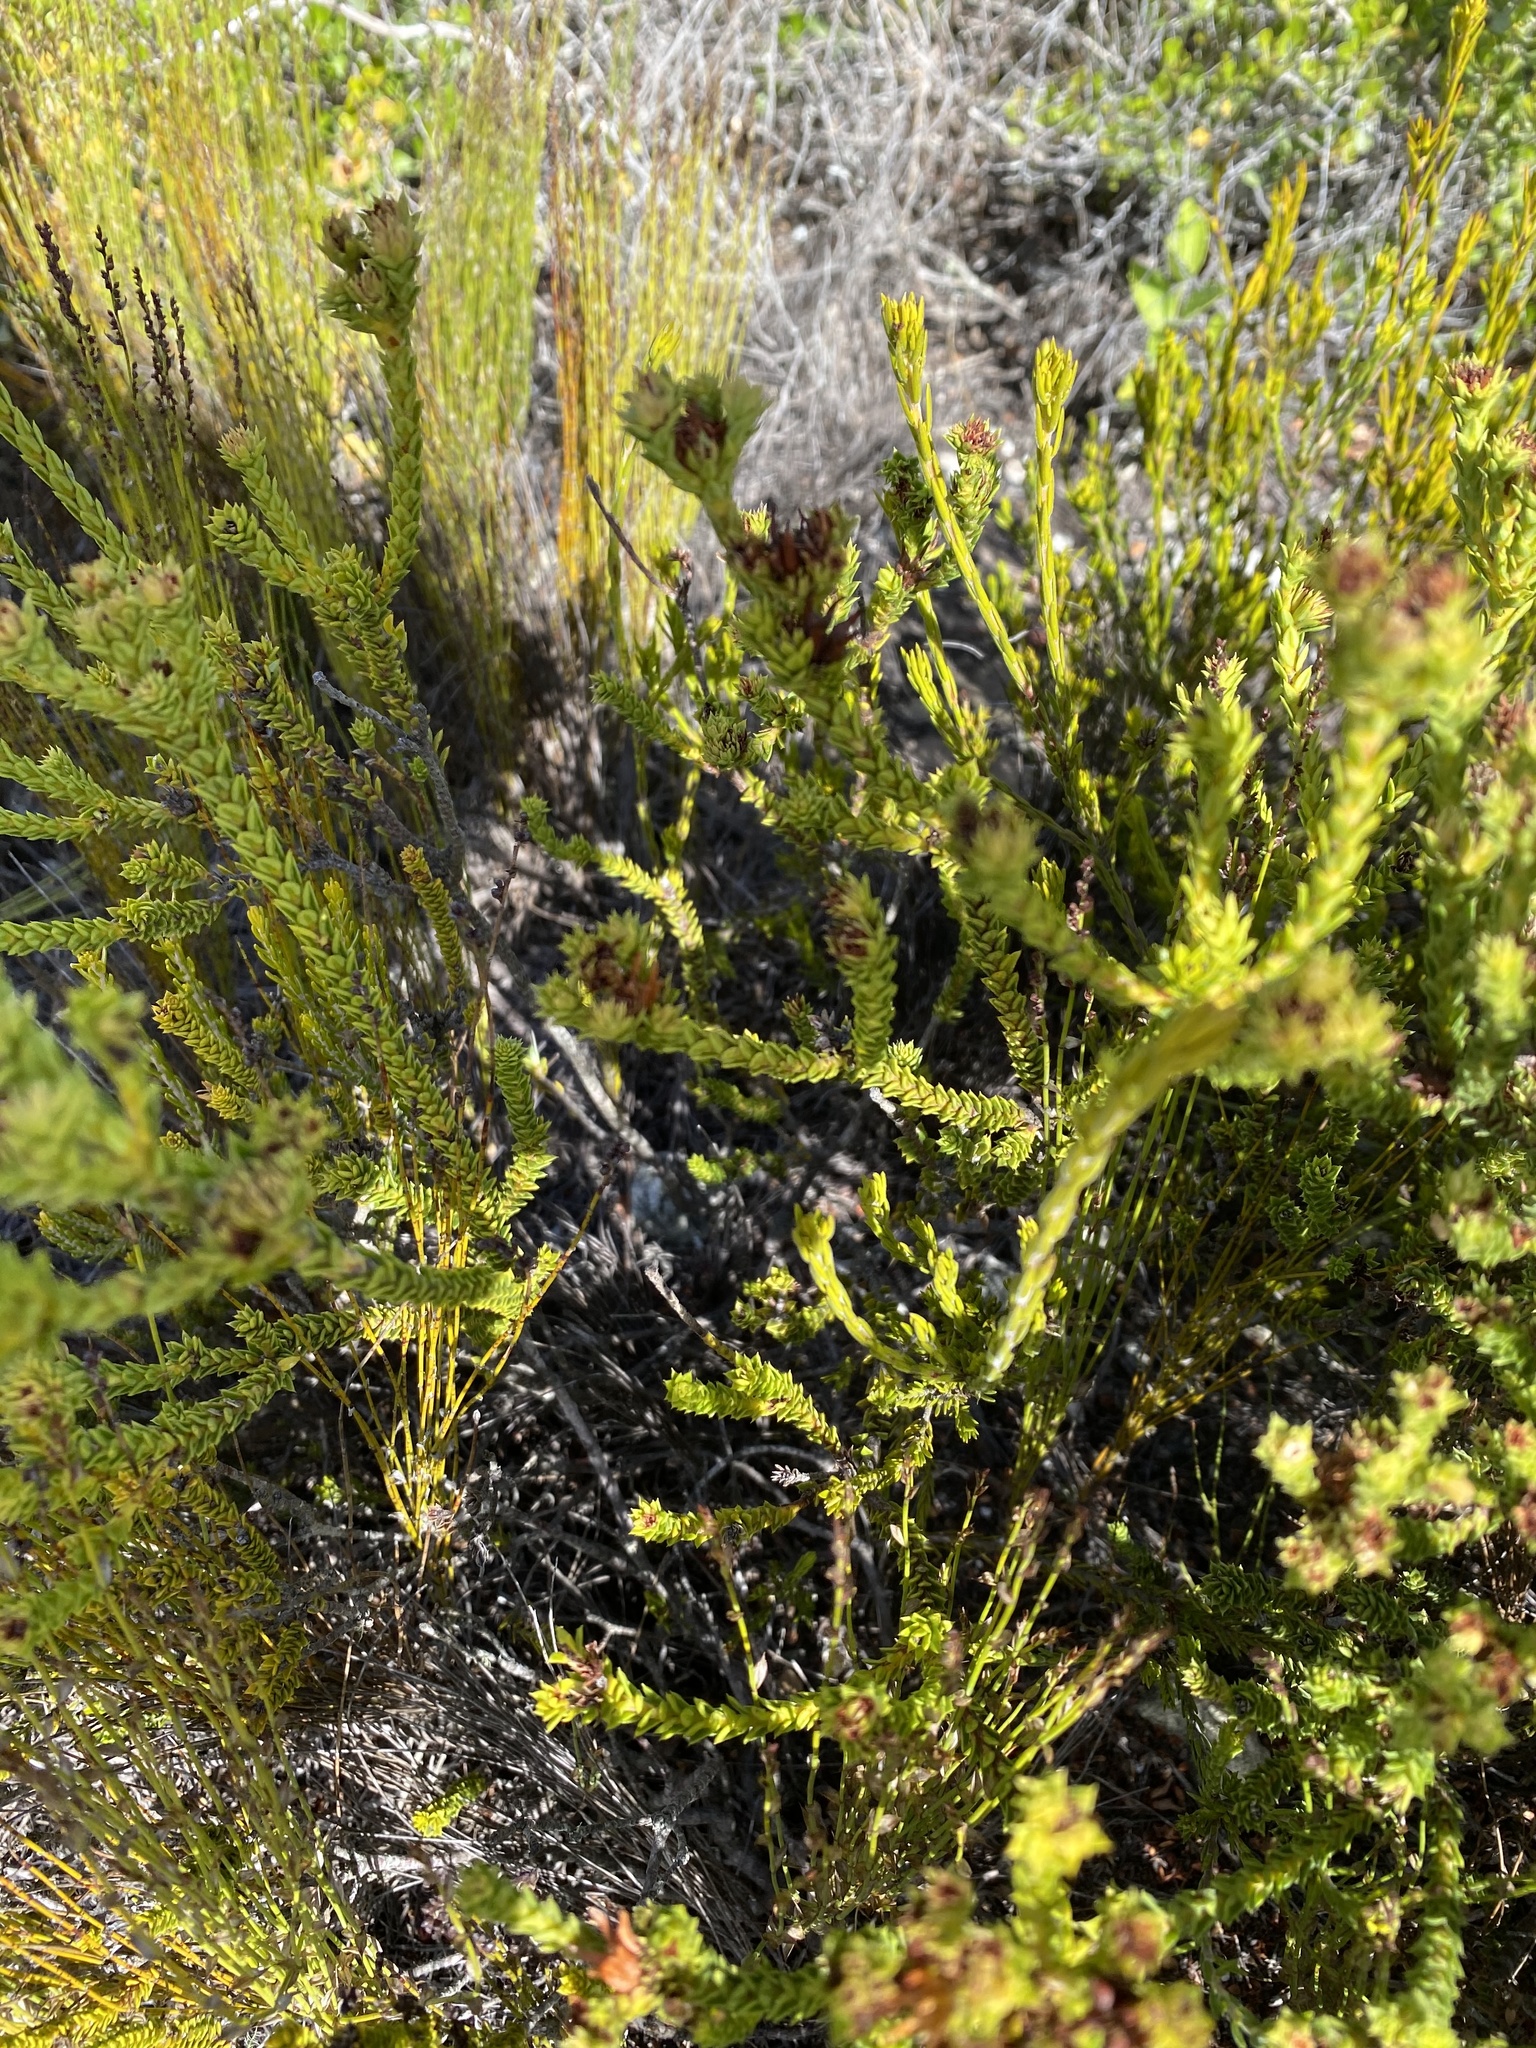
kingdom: Plantae
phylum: Tracheophyta
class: Magnoliopsida
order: Sapindales
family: Rutaceae
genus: Diosma
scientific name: Diosma echinulata
